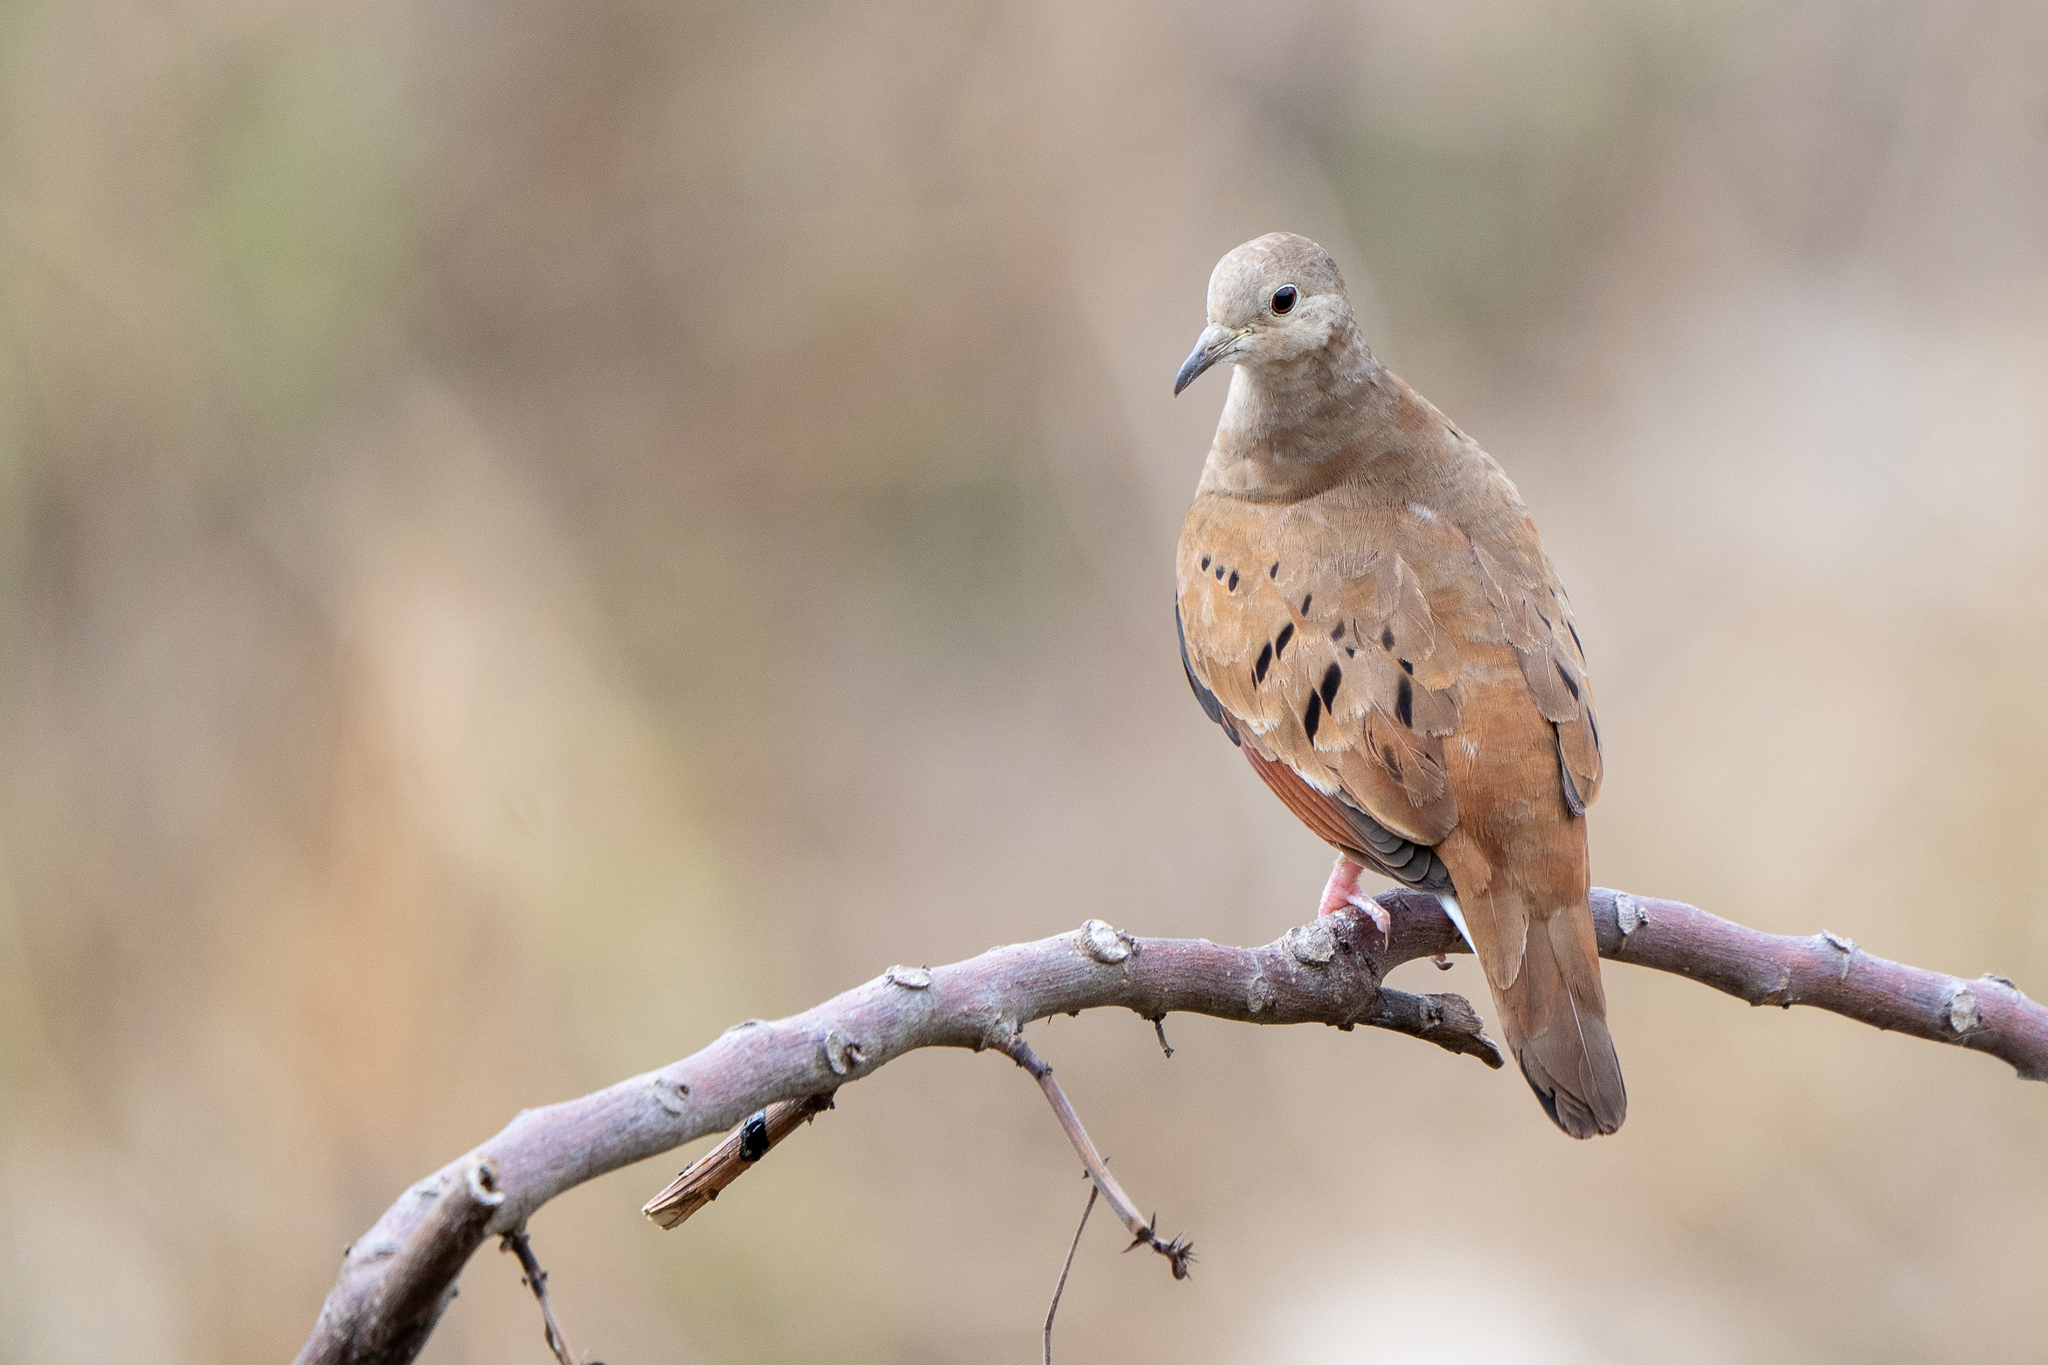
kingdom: Animalia
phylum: Chordata
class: Aves
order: Columbiformes
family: Columbidae
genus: Columbina
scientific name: Columbina talpacoti
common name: Ruddy ground dove
